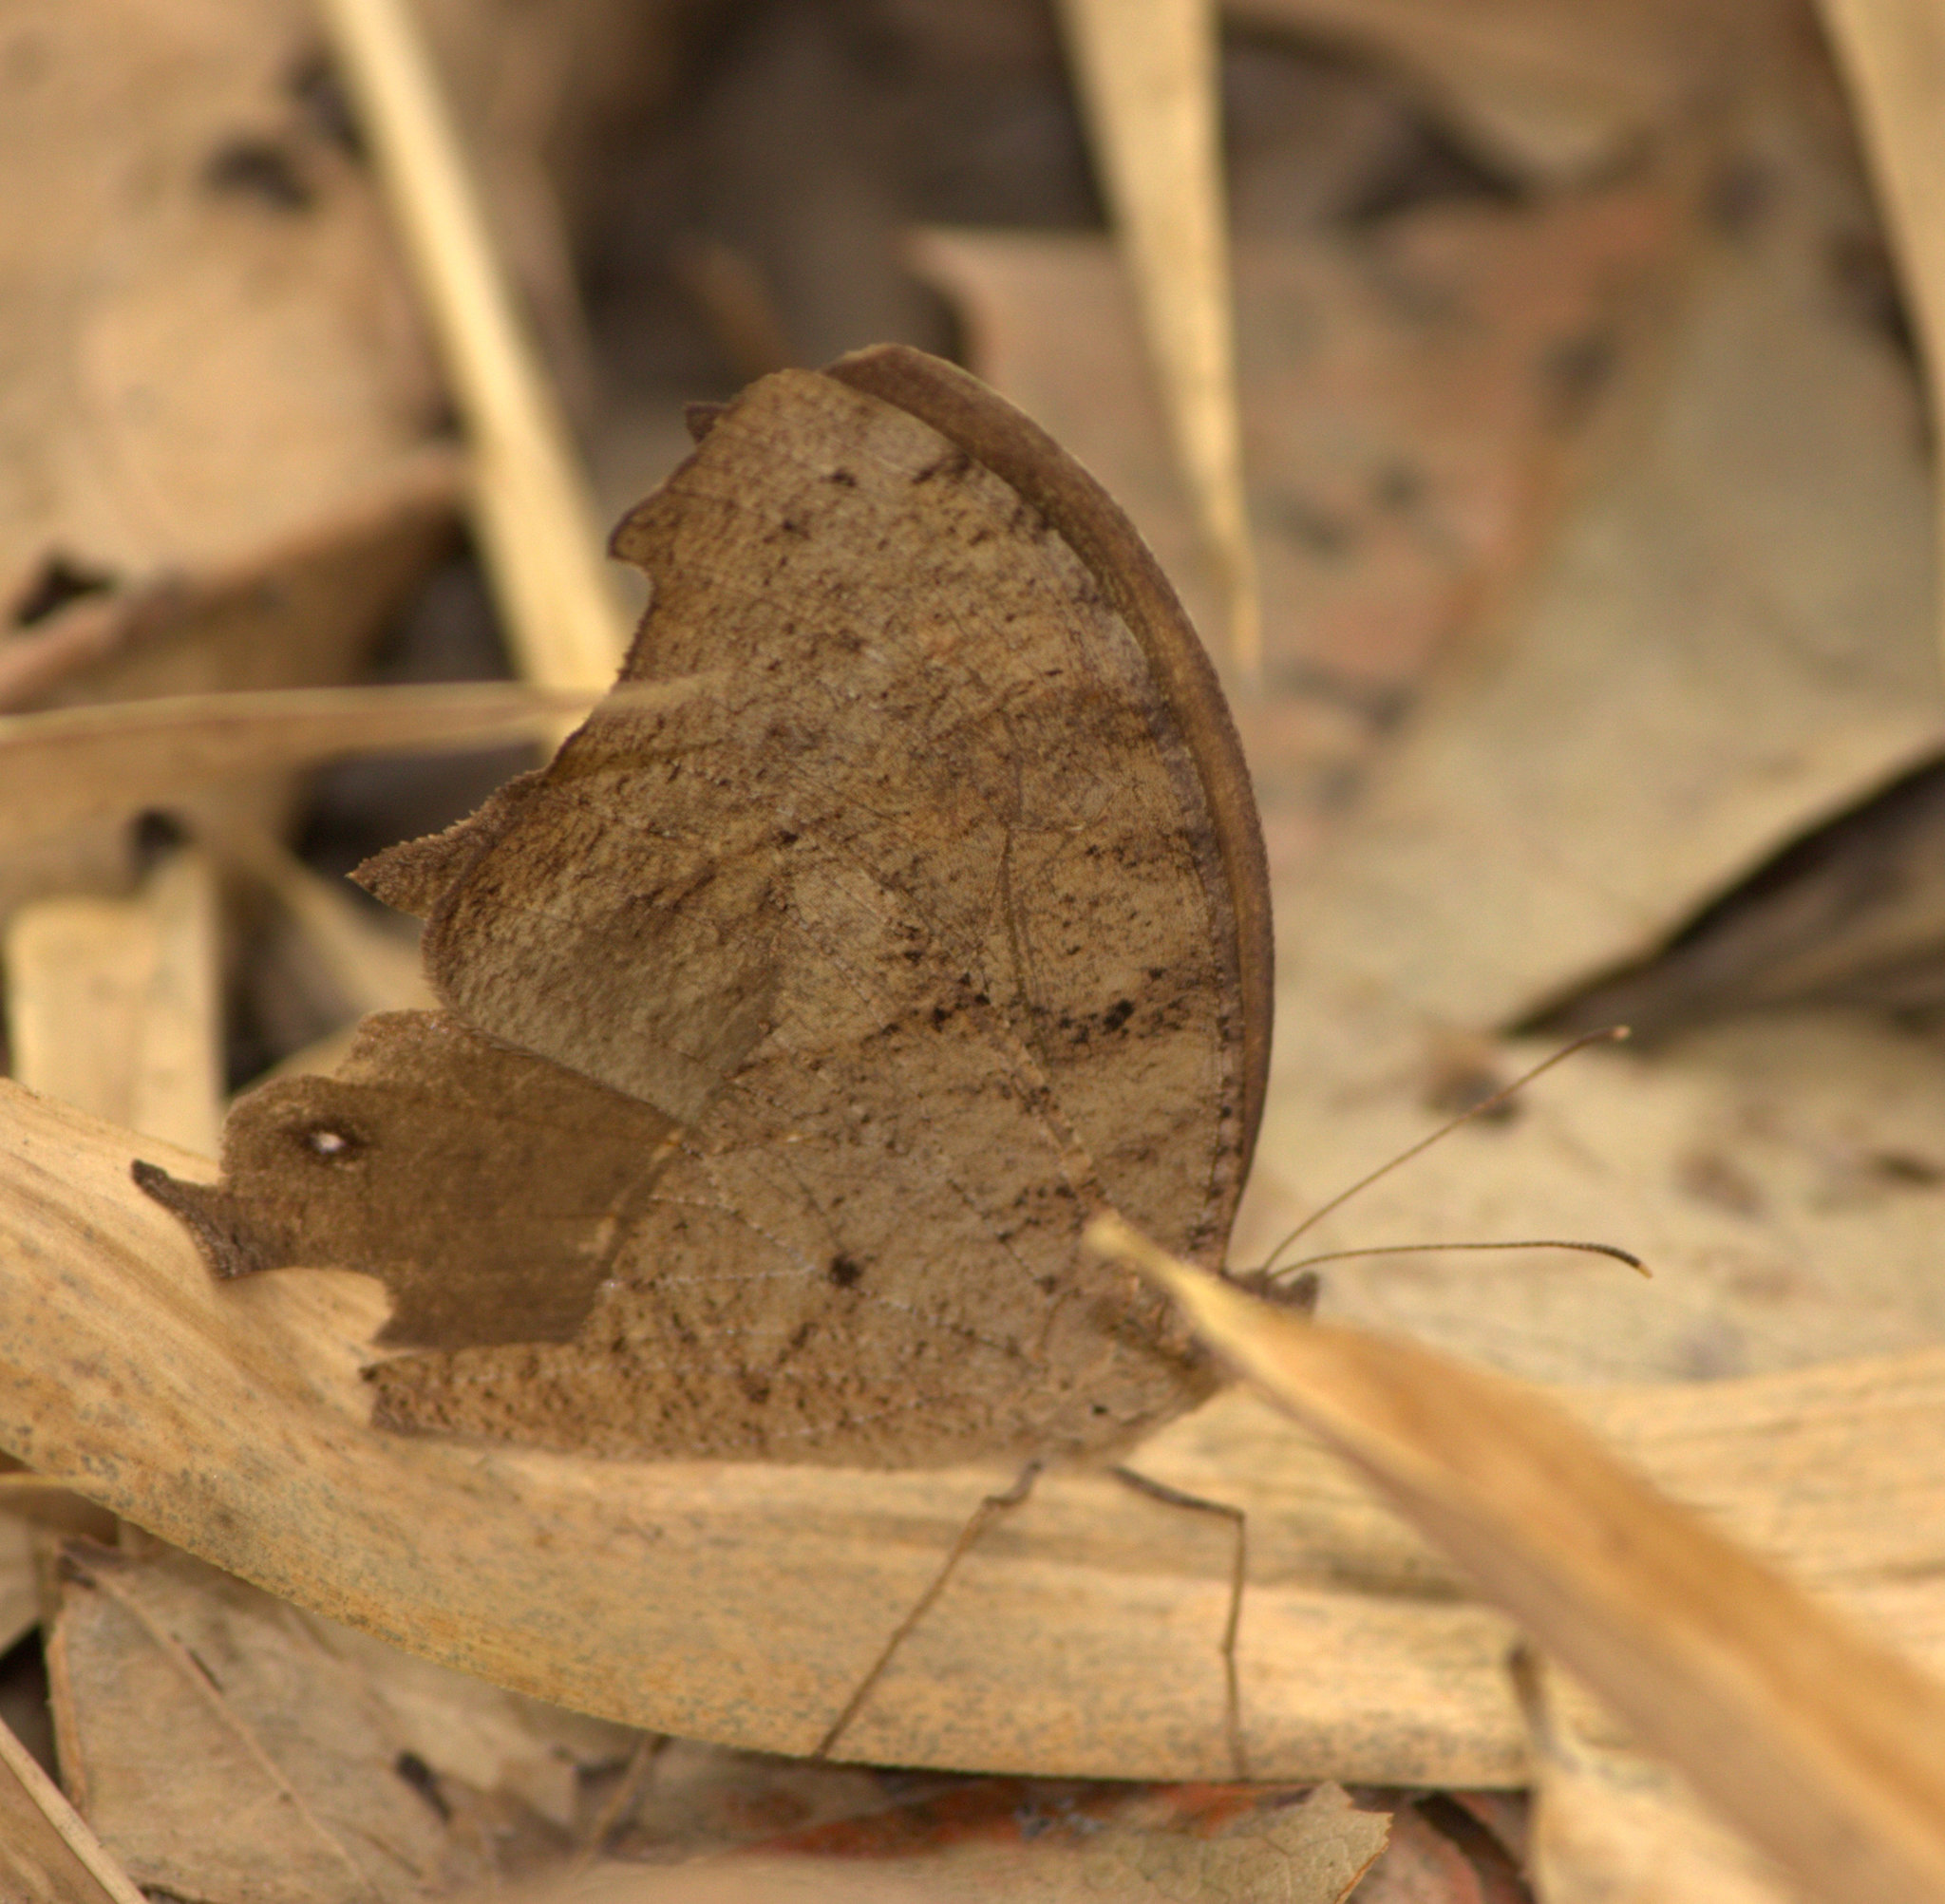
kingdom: Animalia
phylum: Arthropoda
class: Insecta
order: Lepidoptera
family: Nymphalidae
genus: Melanitis
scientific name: Melanitis leda
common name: Twilight brown
